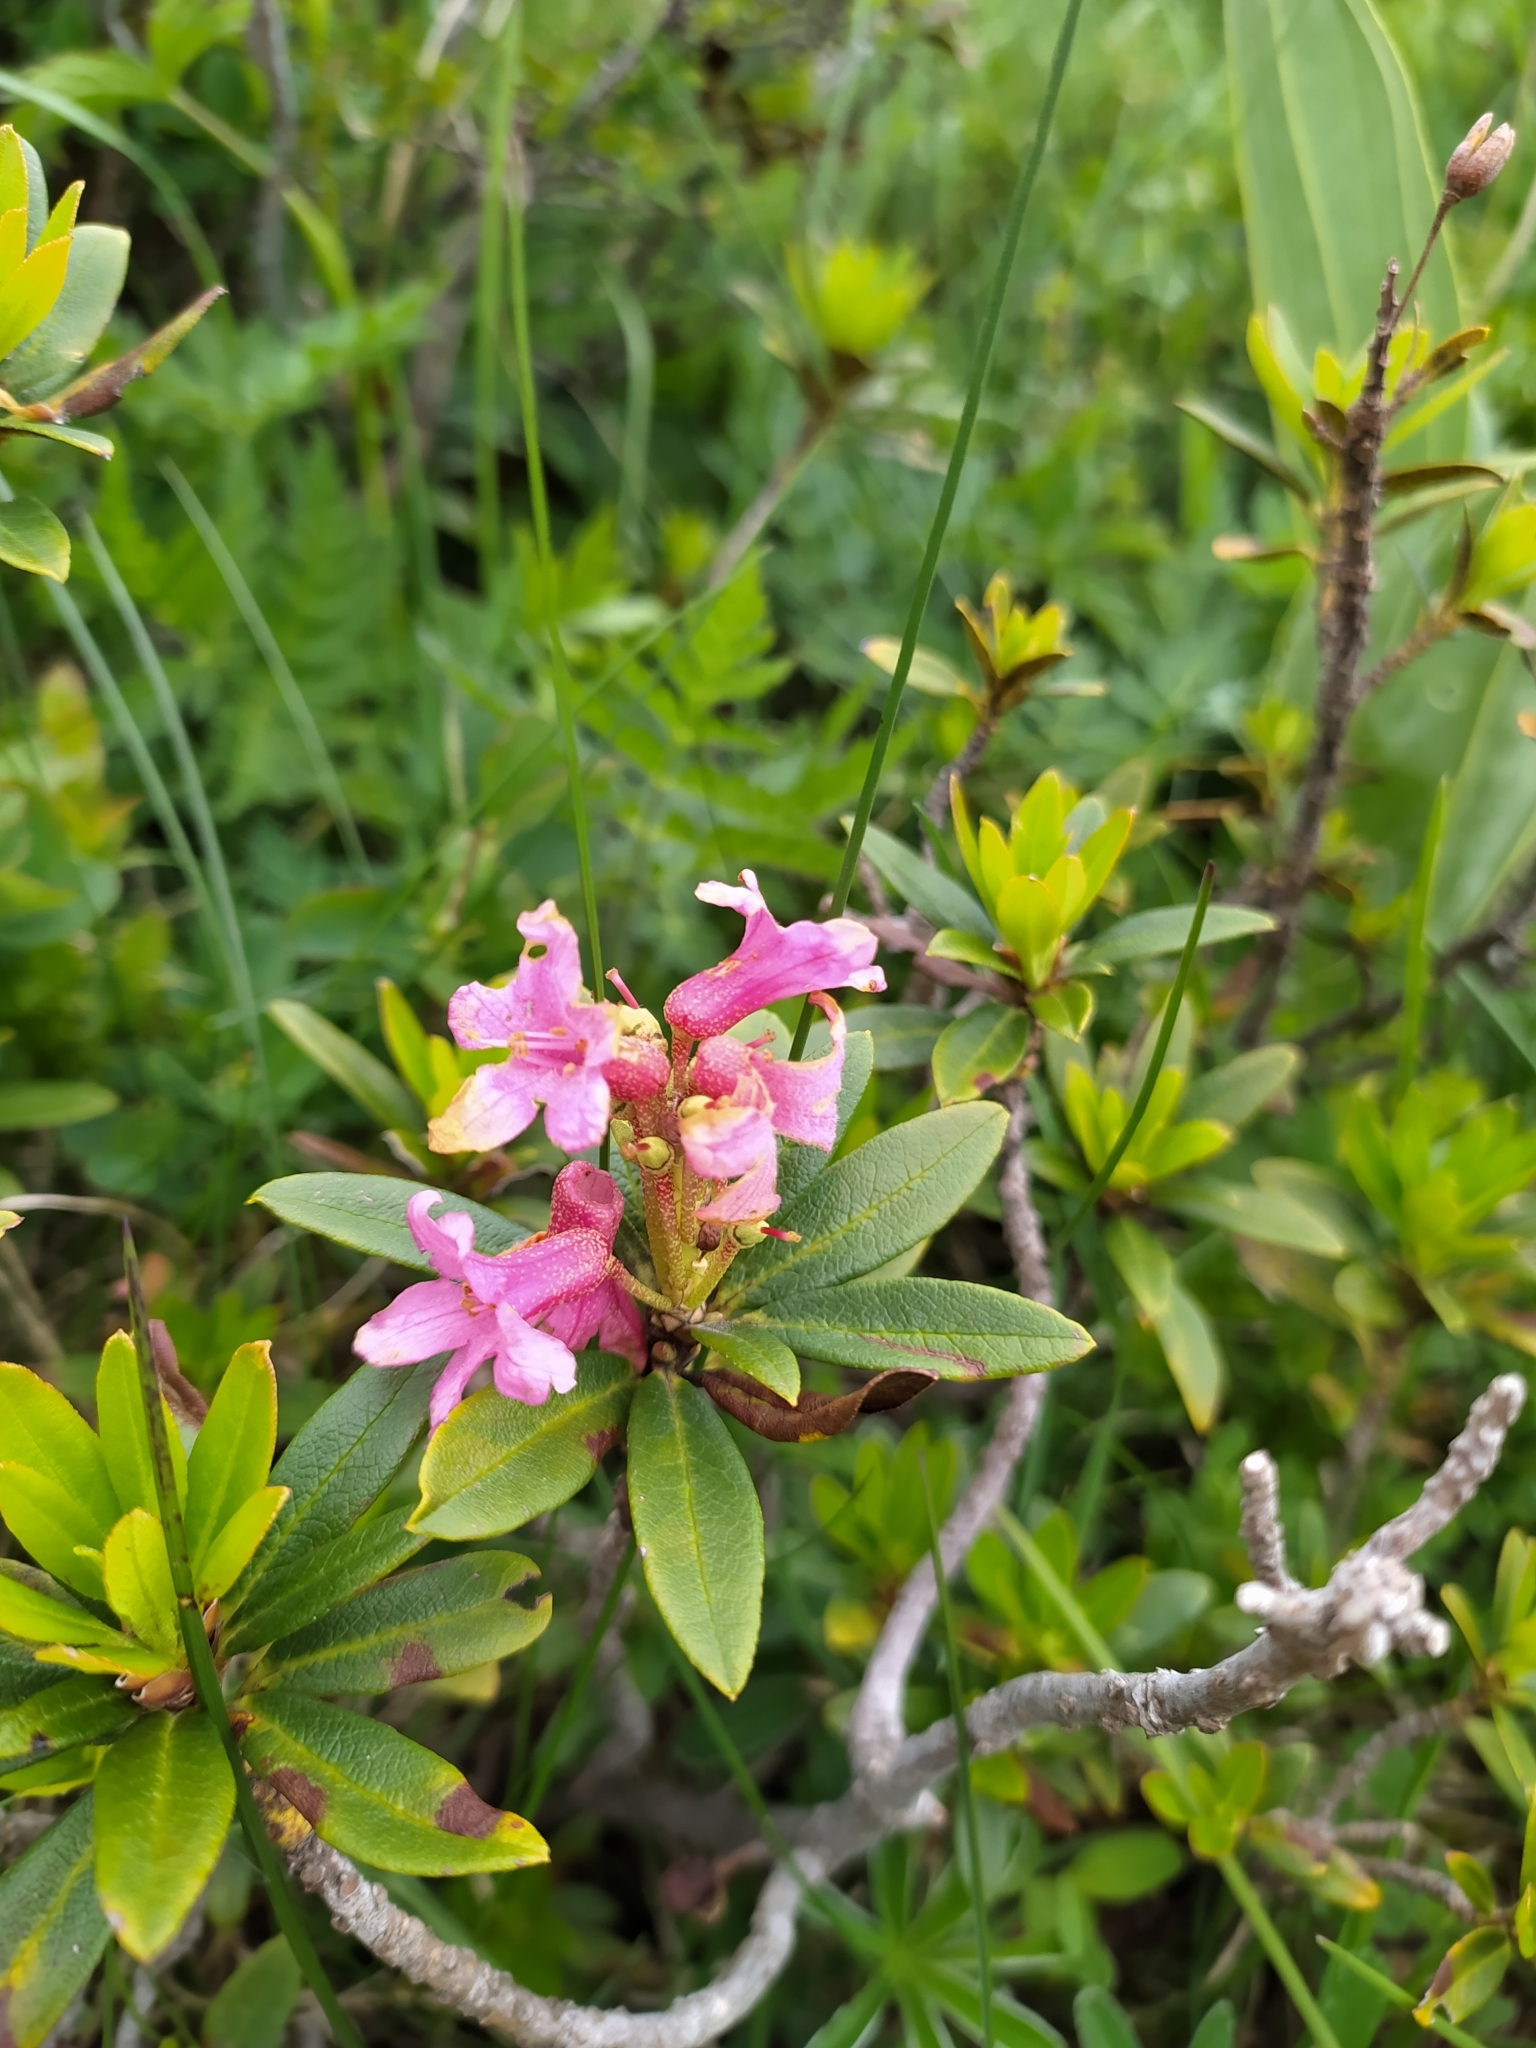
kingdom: Plantae
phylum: Tracheophyta
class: Magnoliopsida
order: Ericales
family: Ericaceae
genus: Rhododendron
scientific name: Rhododendron ferrugineum
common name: Alpenrose
